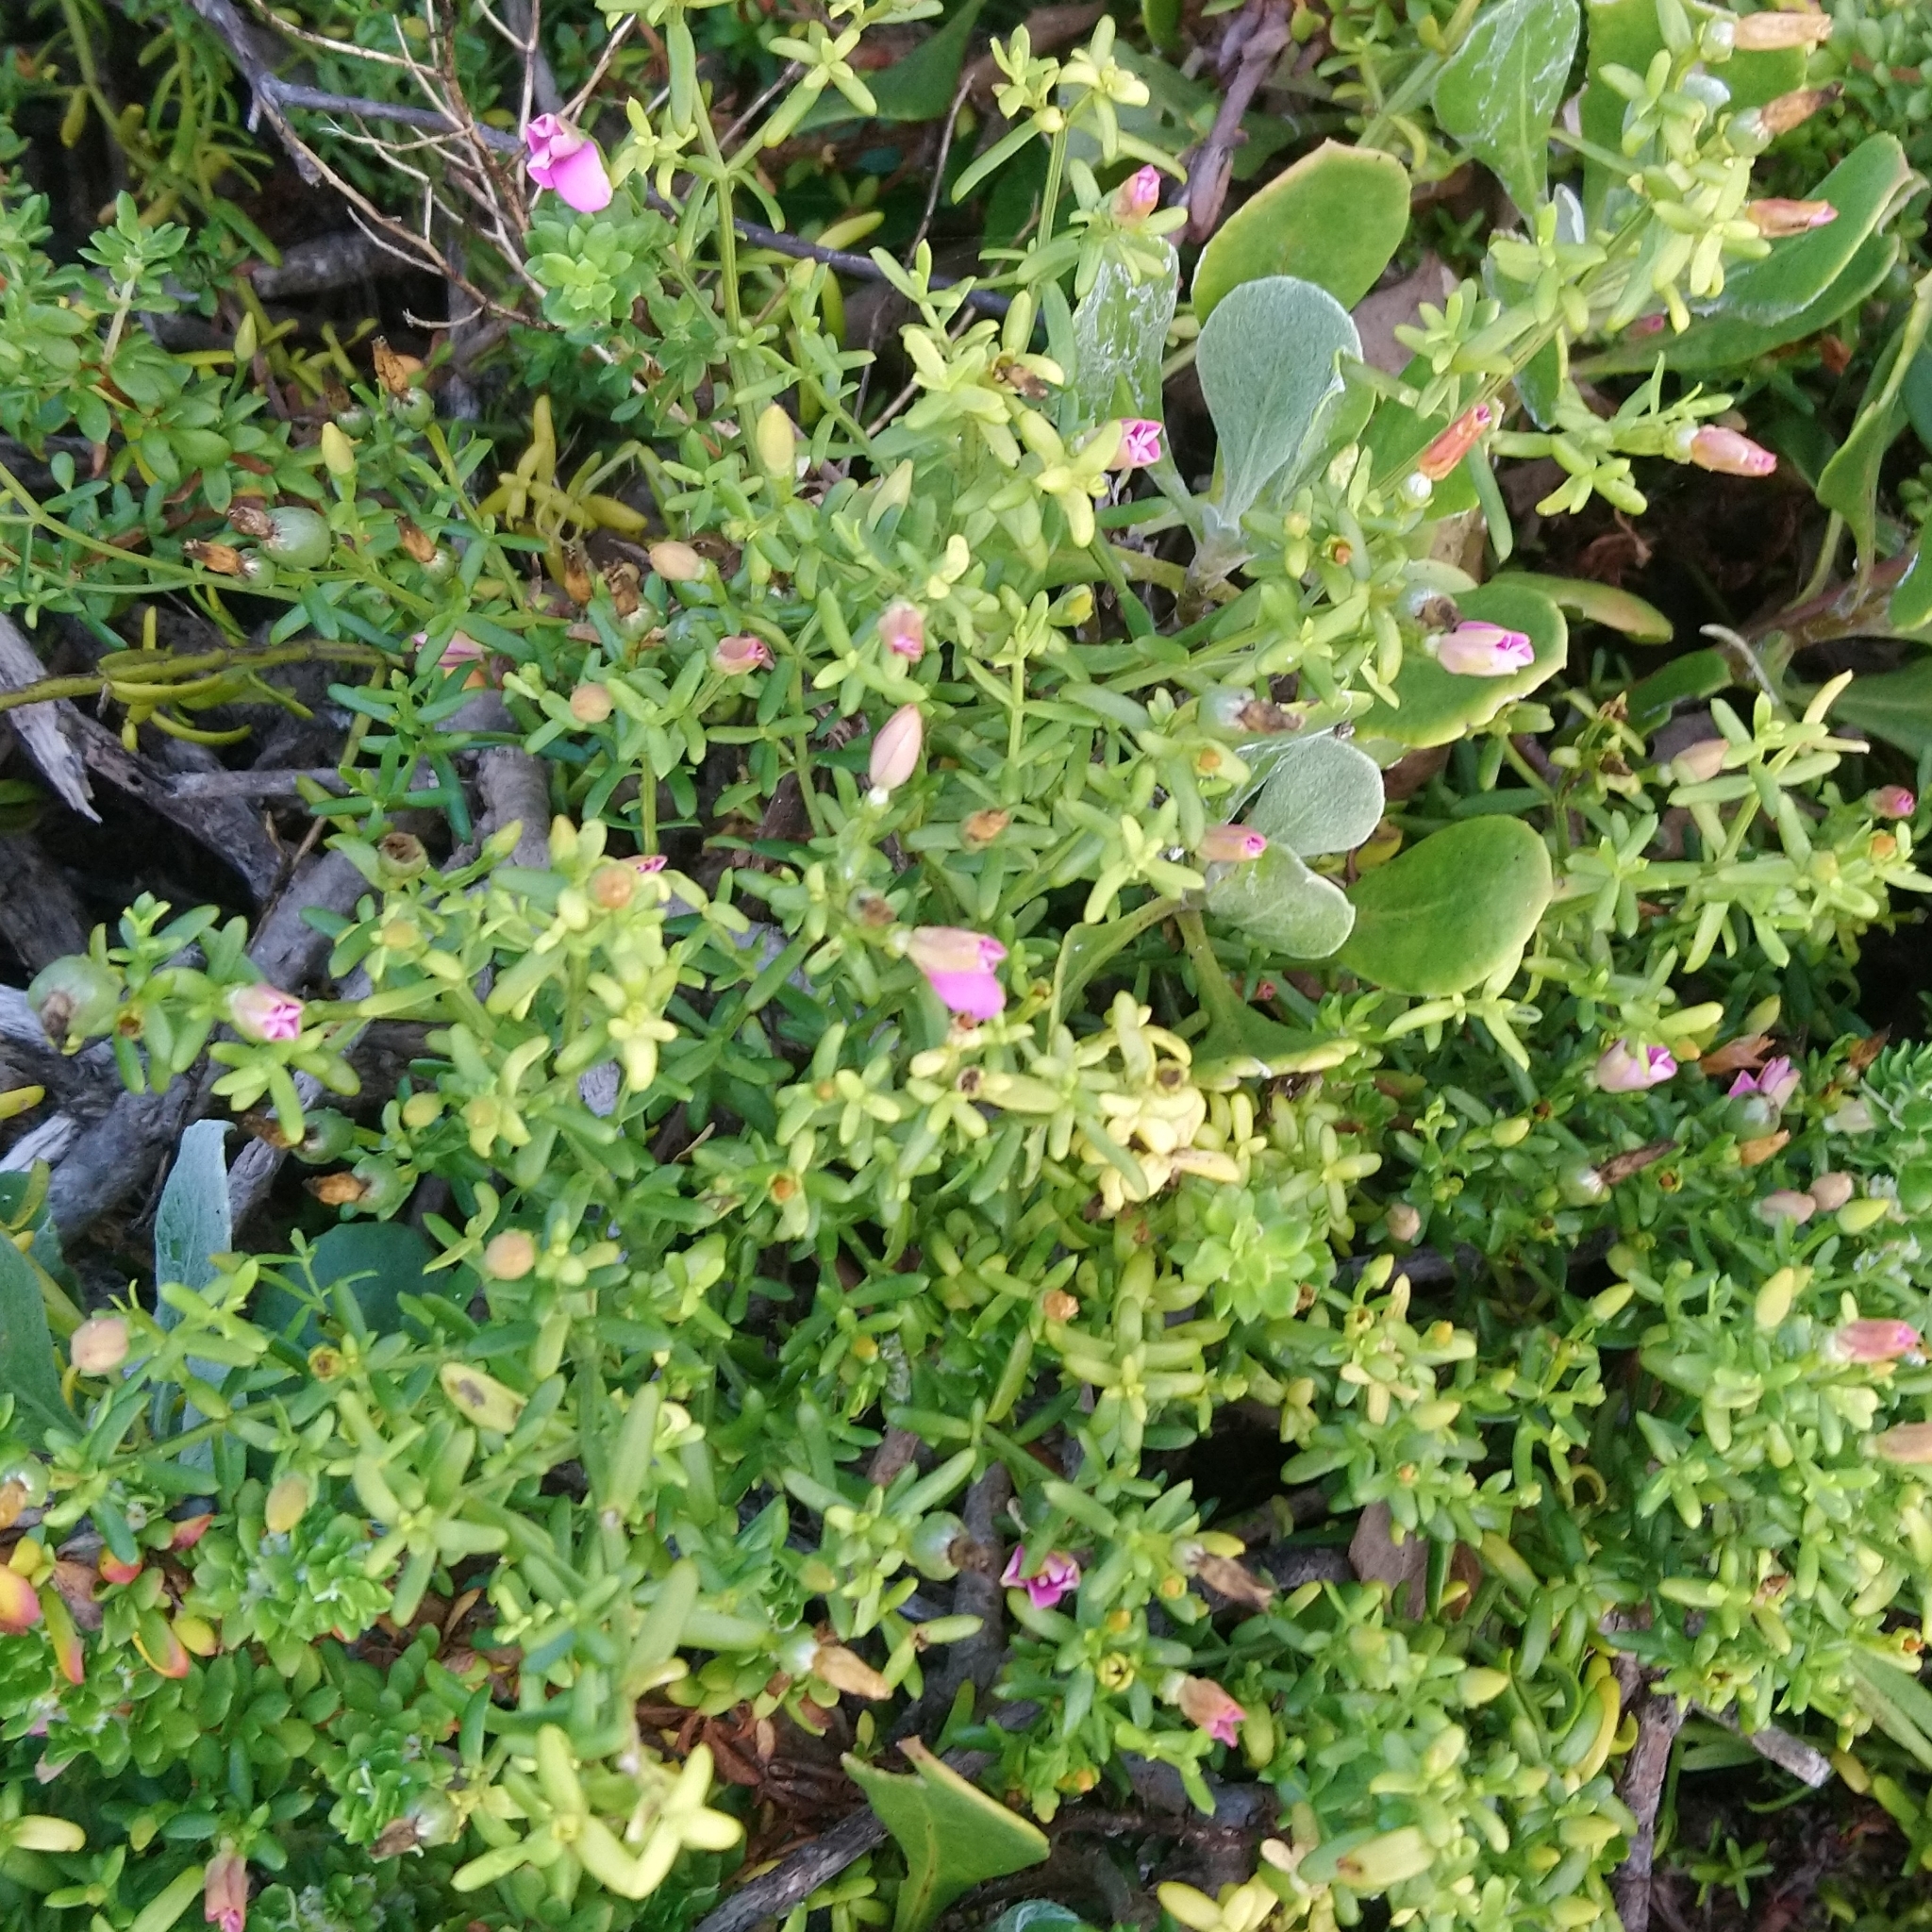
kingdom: Plantae
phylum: Tracheophyta
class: Magnoliopsida
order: Gentianales
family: Gentianaceae
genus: Chironia
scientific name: Chironia baccifera
